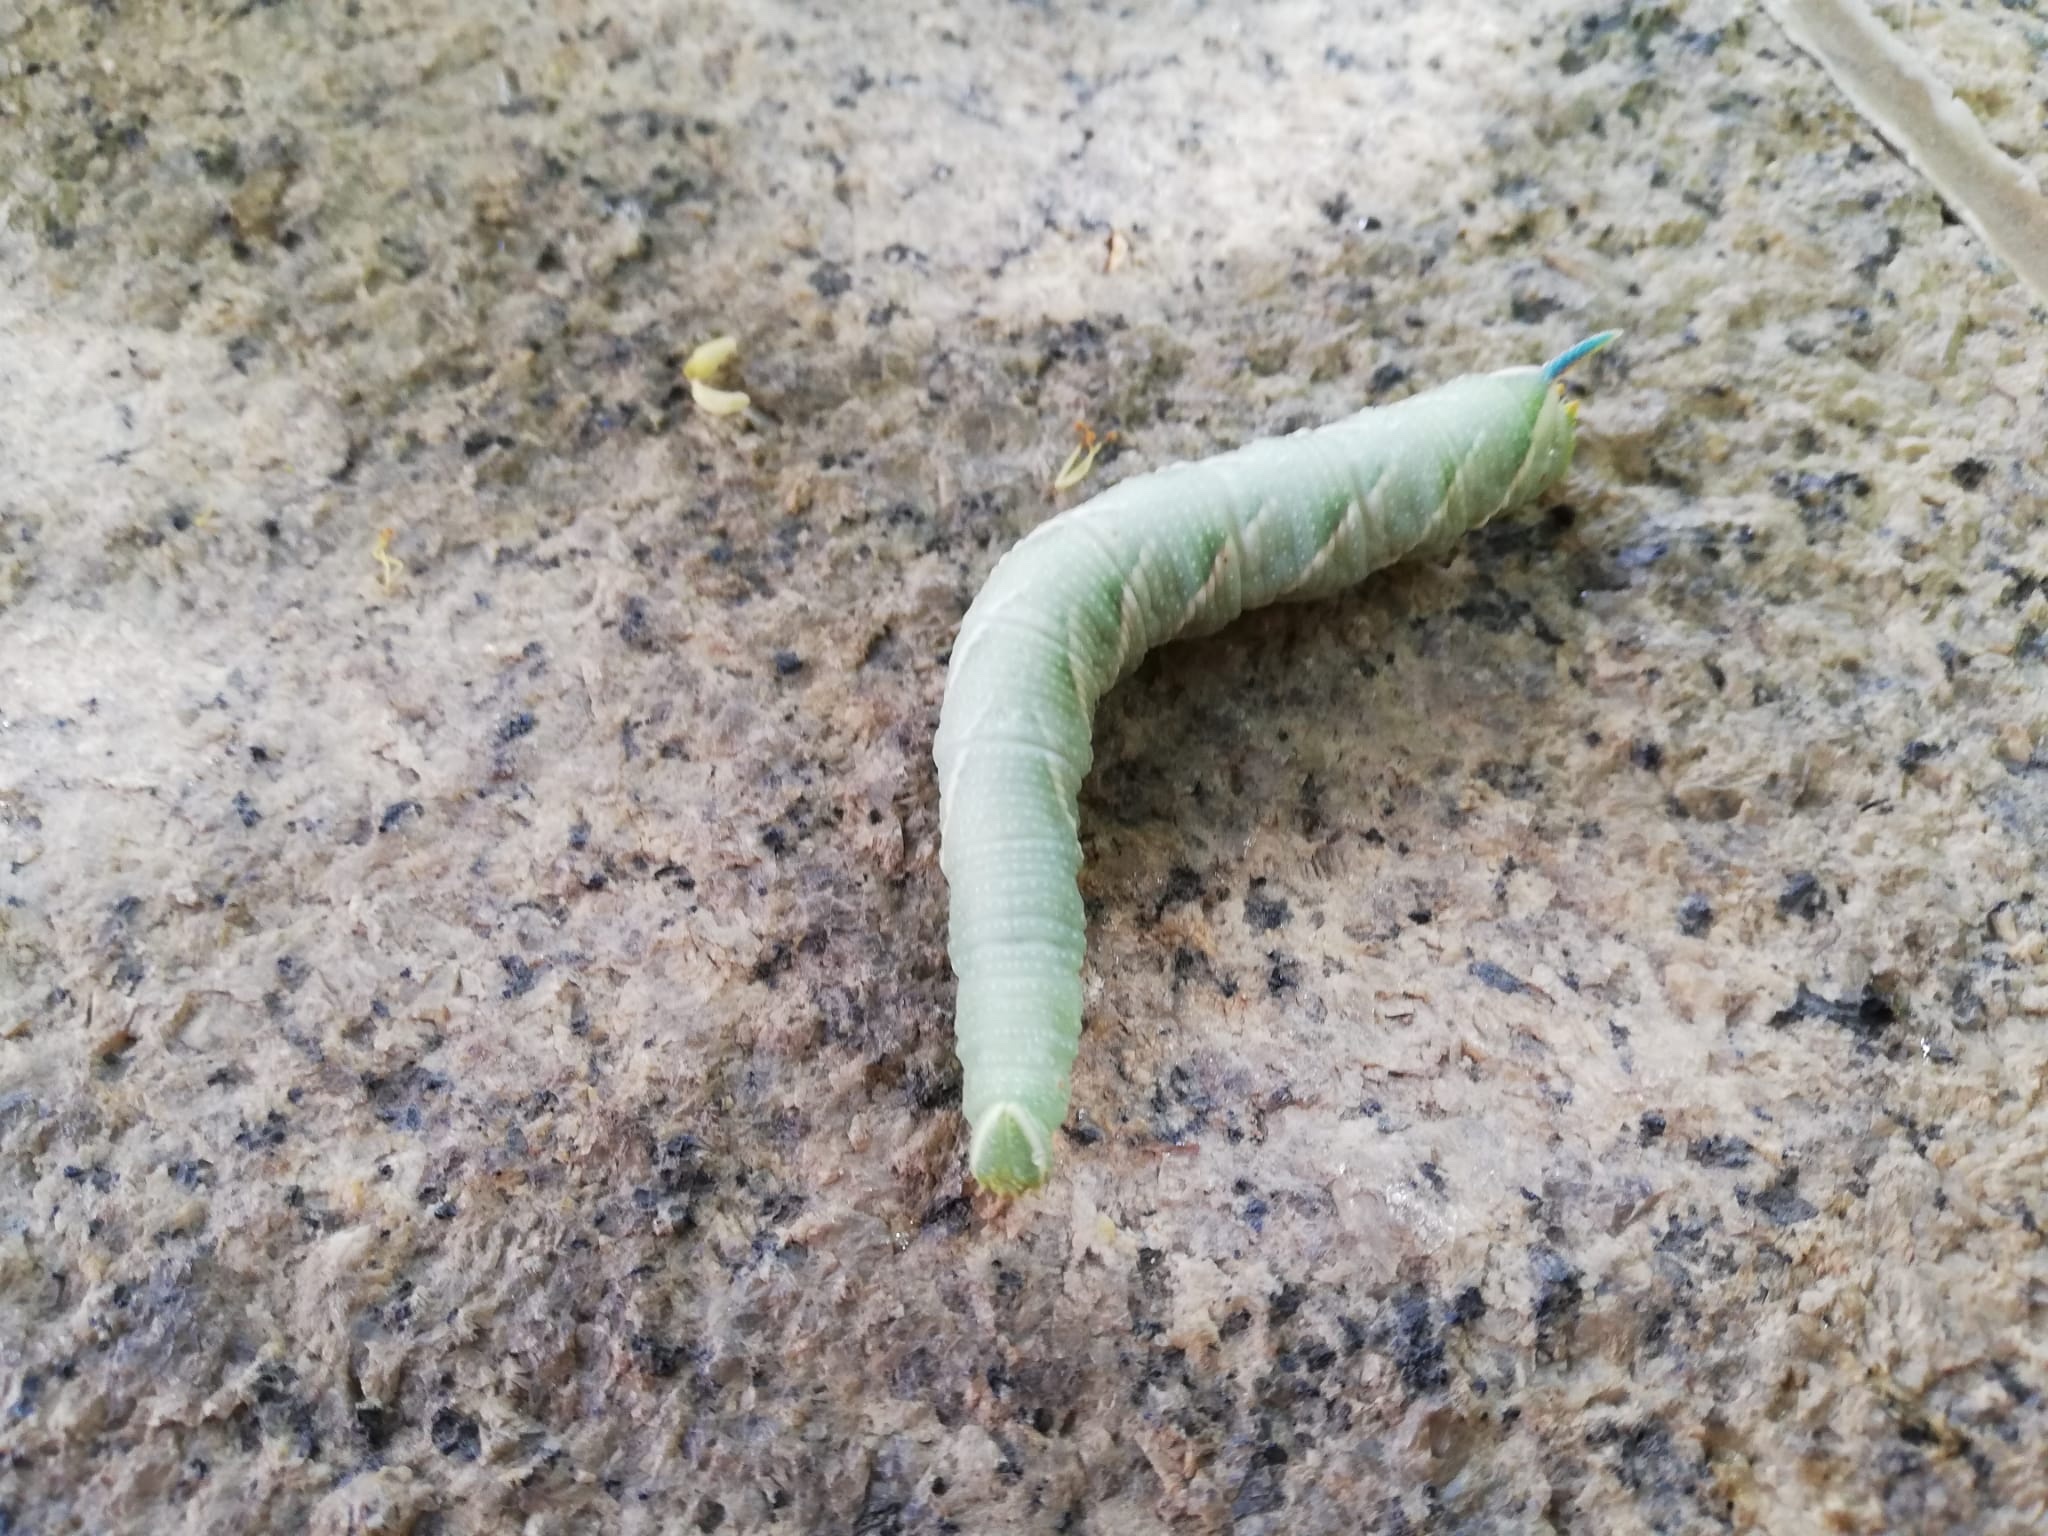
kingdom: Animalia
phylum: Arthropoda
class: Insecta
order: Lepidoptera
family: Sphingidae
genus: Mimas
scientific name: Mimas tiliae
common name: Lime hawk-moth
